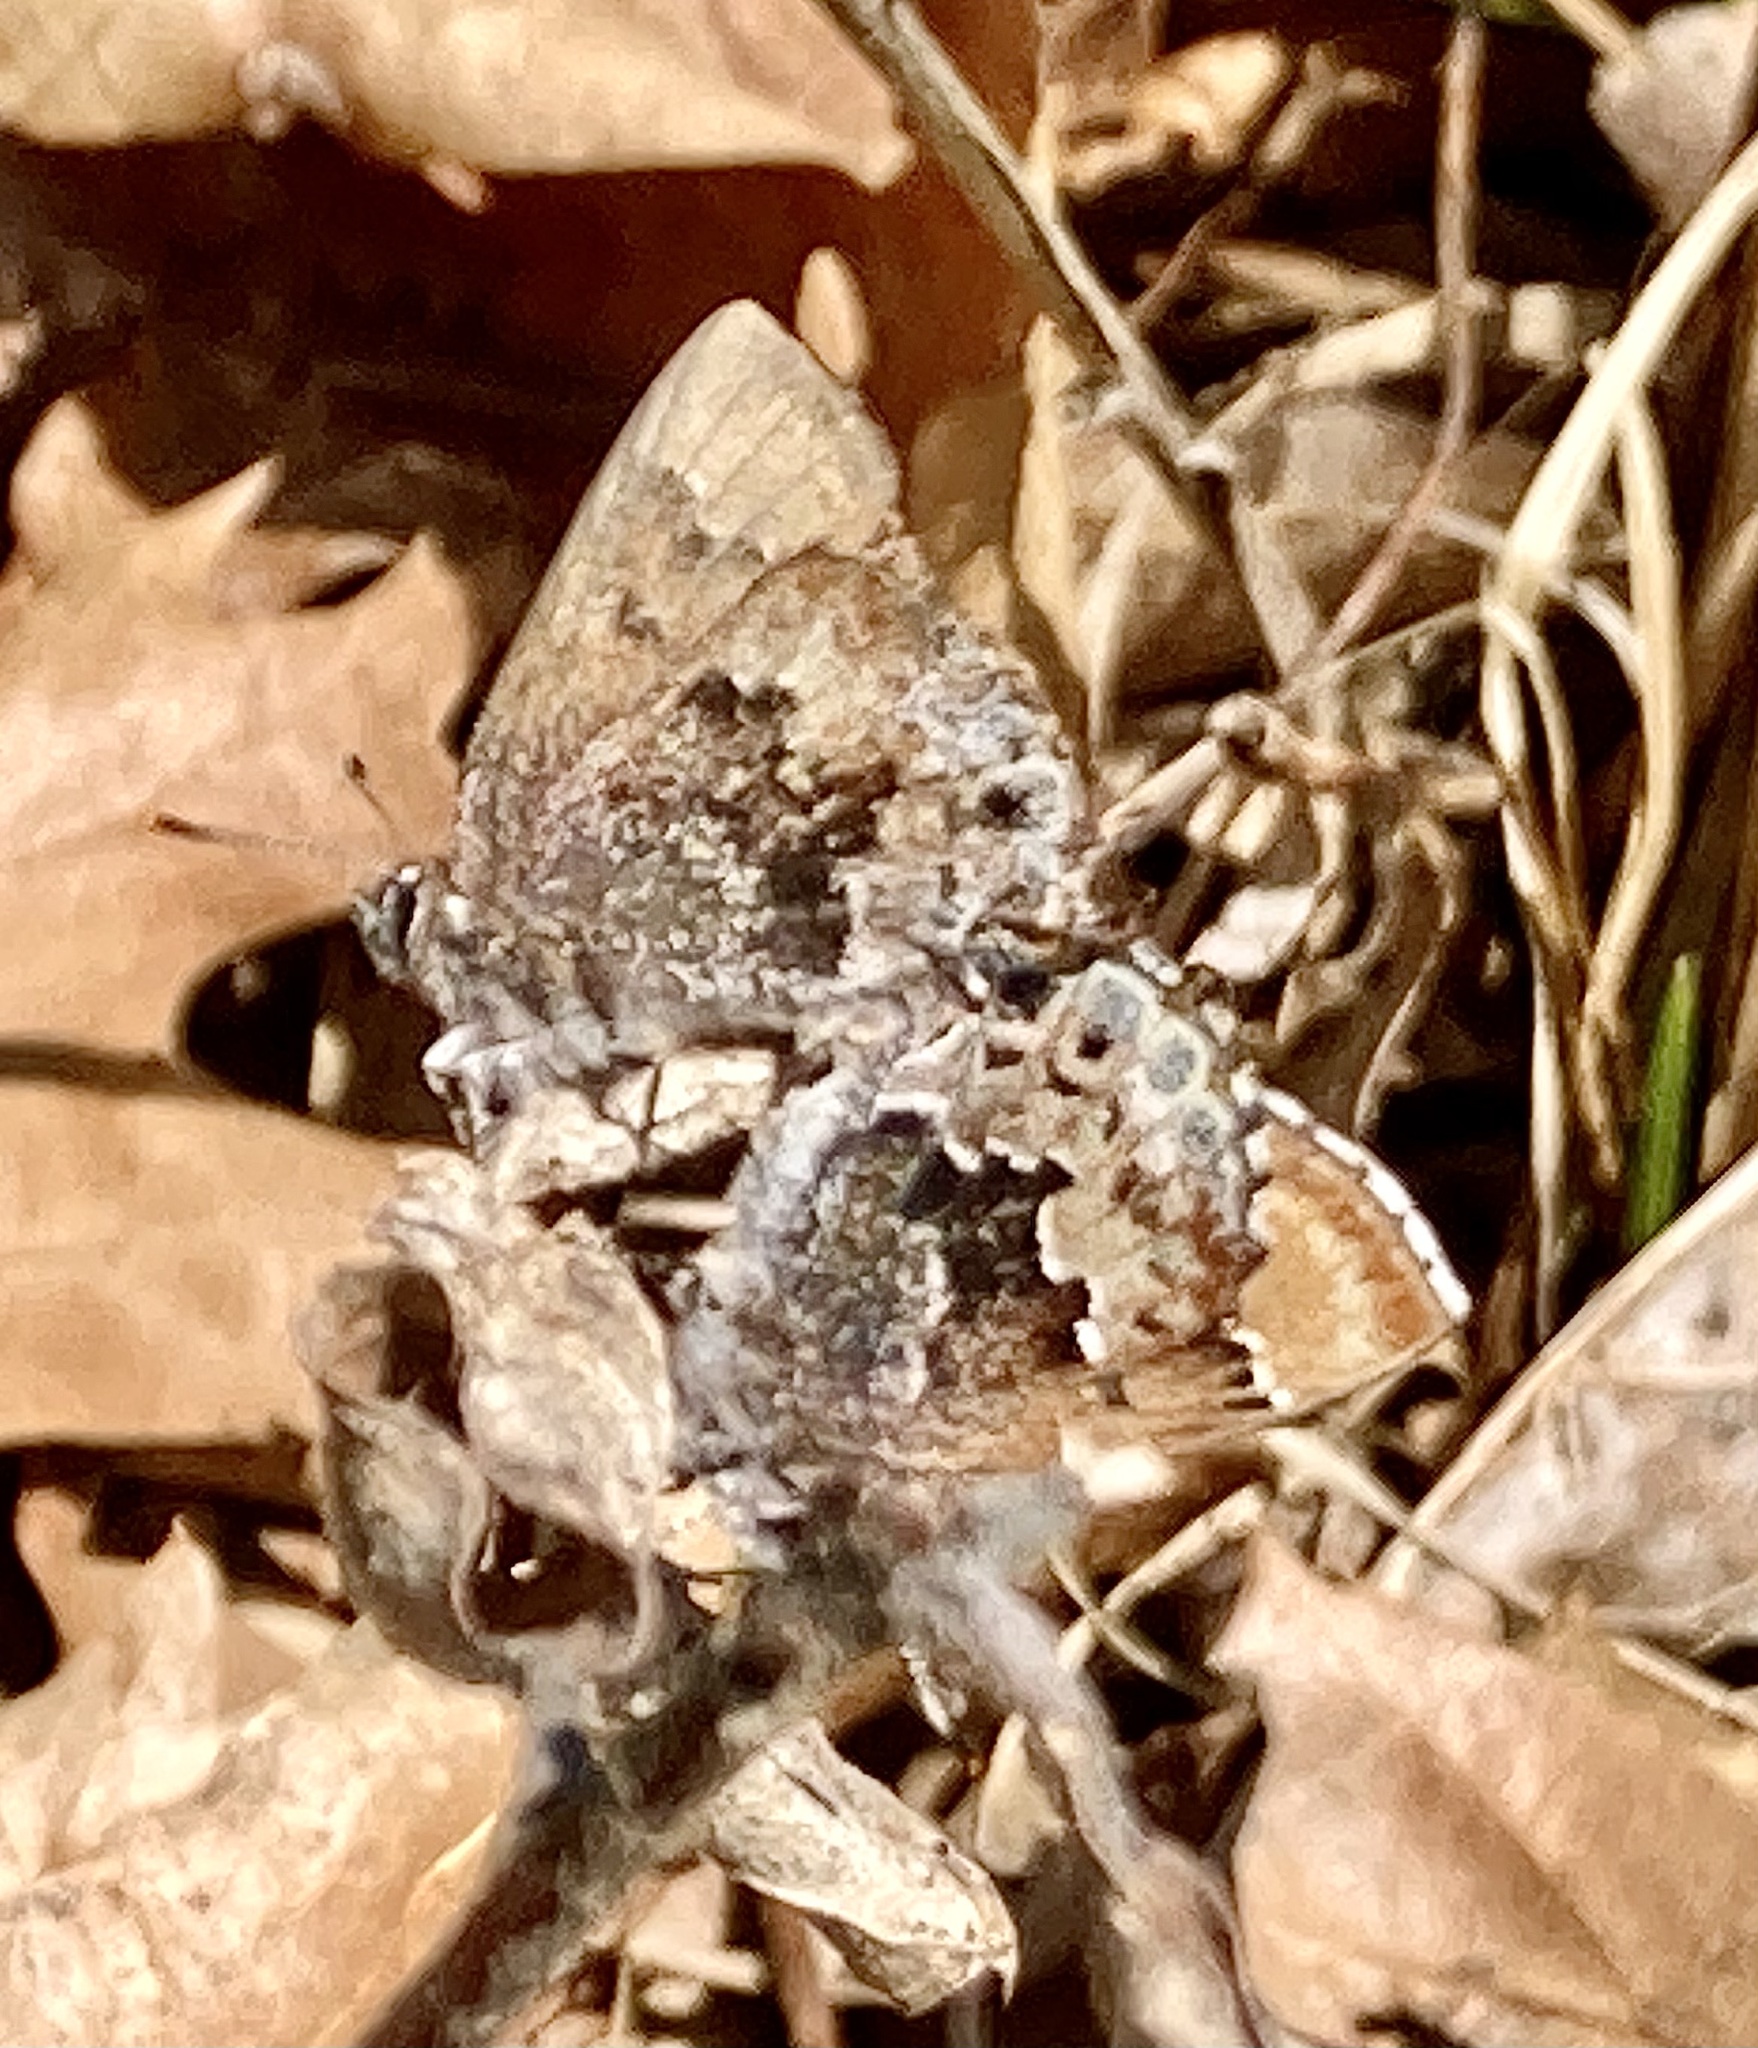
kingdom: Animalia
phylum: Arthropoda
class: Insecta
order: Lepidoptera
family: Lycaenidae
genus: Thecla
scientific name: Thecla irus
